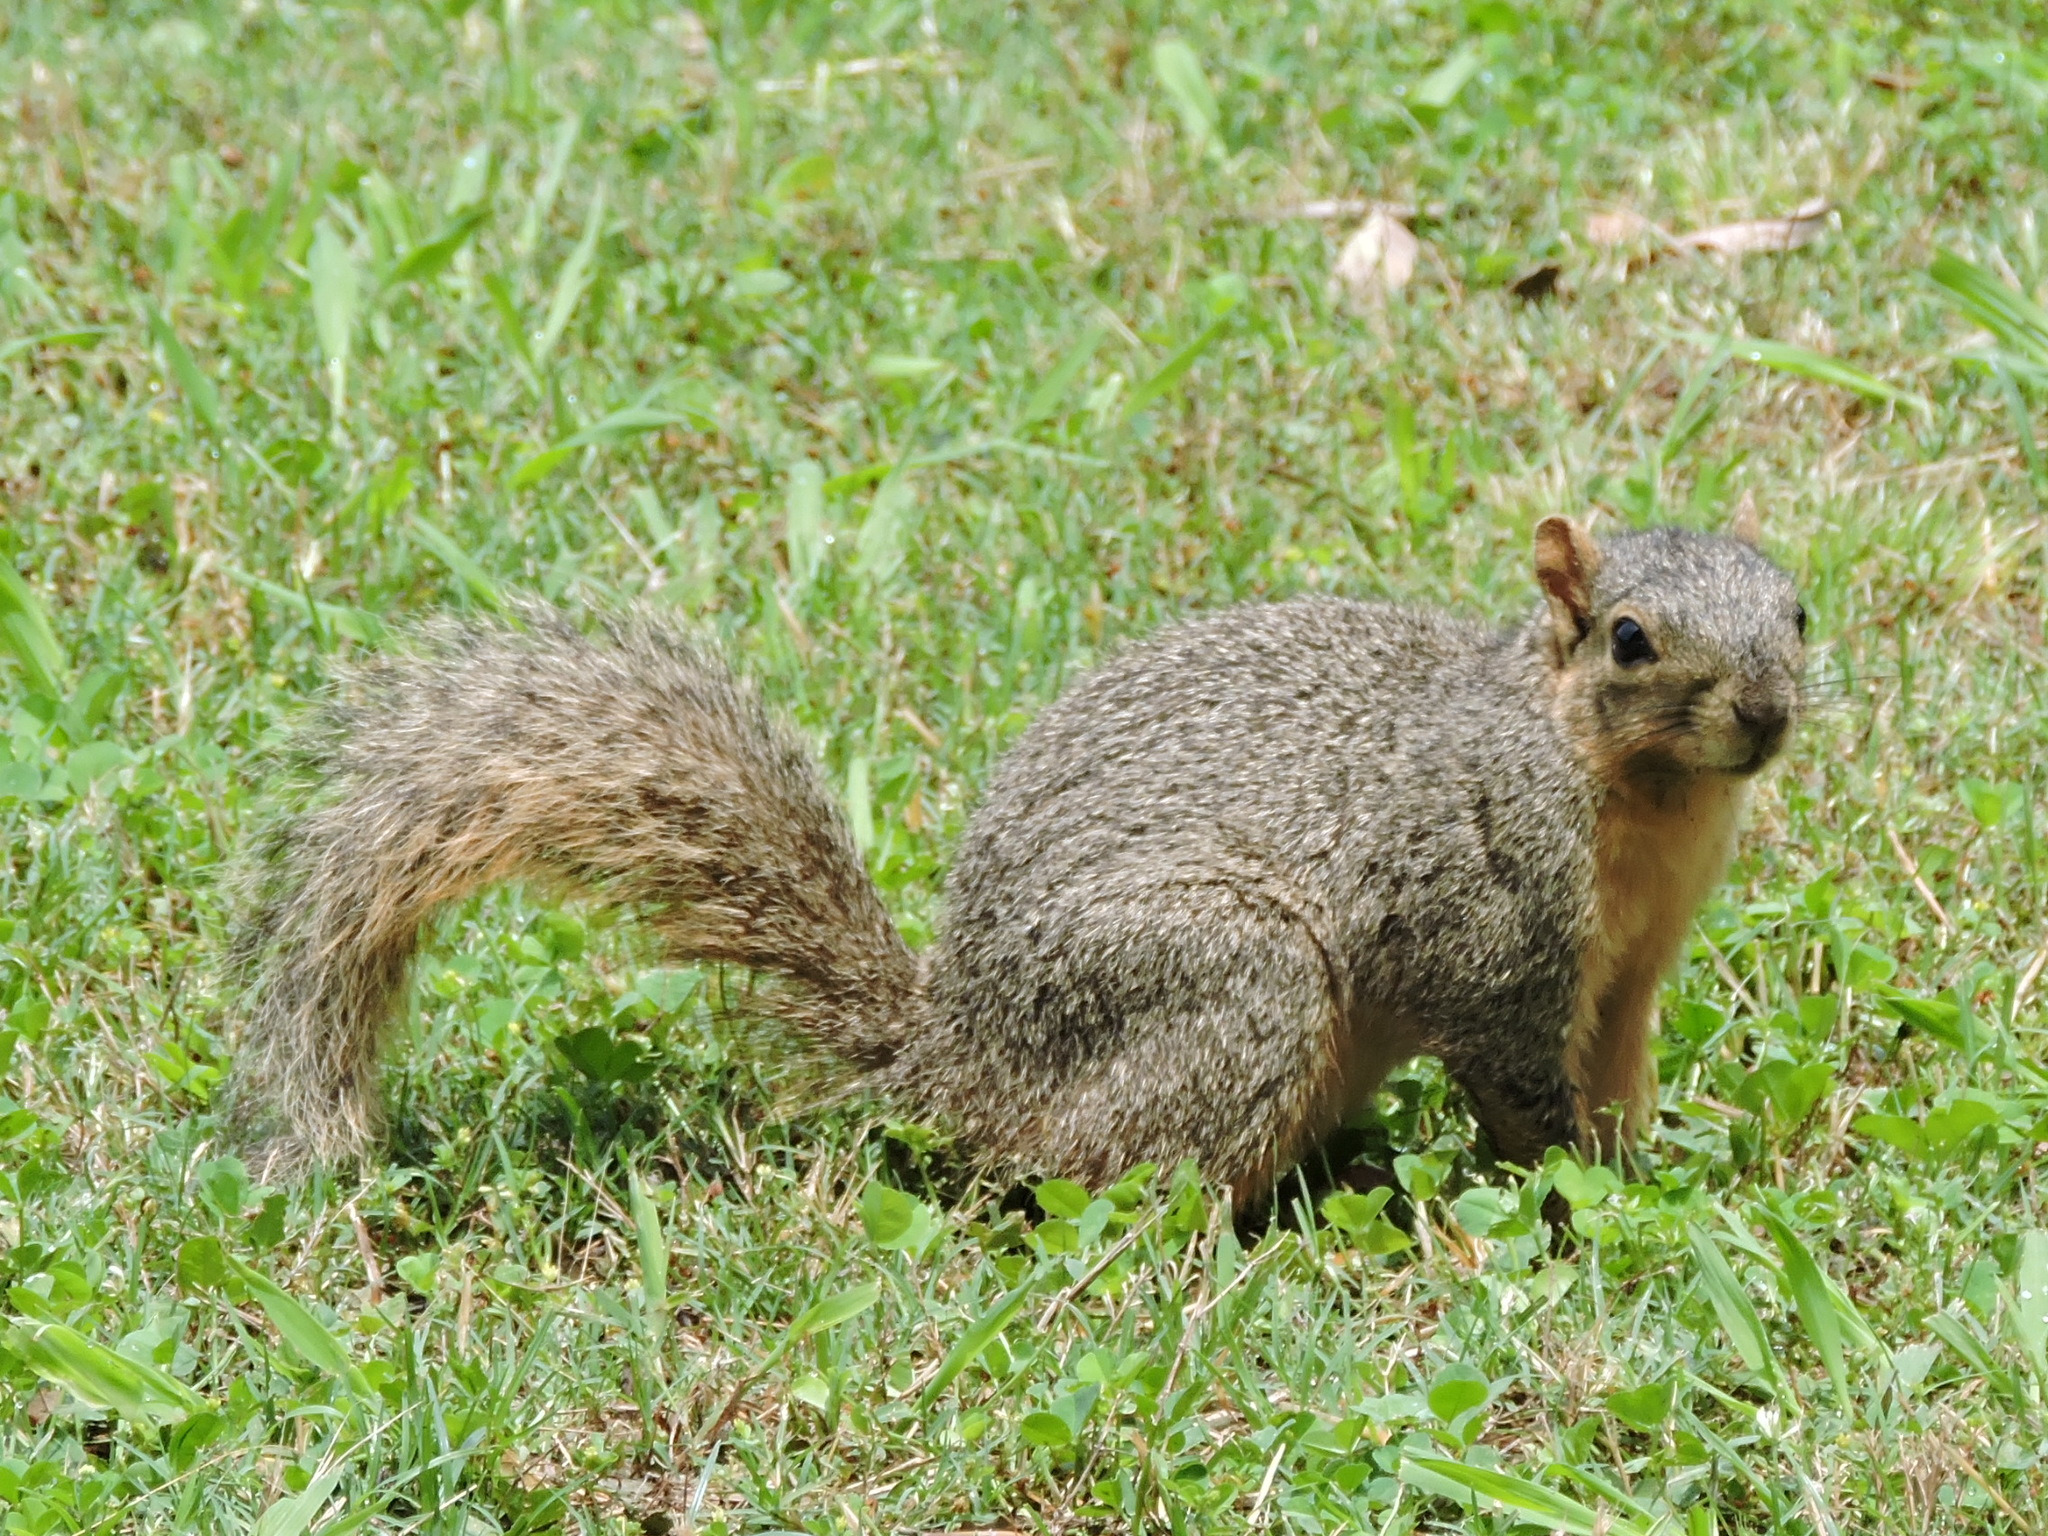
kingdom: Animalia
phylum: Chordata
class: Mammalia
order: Rodentia
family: Sciuridae
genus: Sciurus
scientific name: Sciurus niger
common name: Fox squirrel
